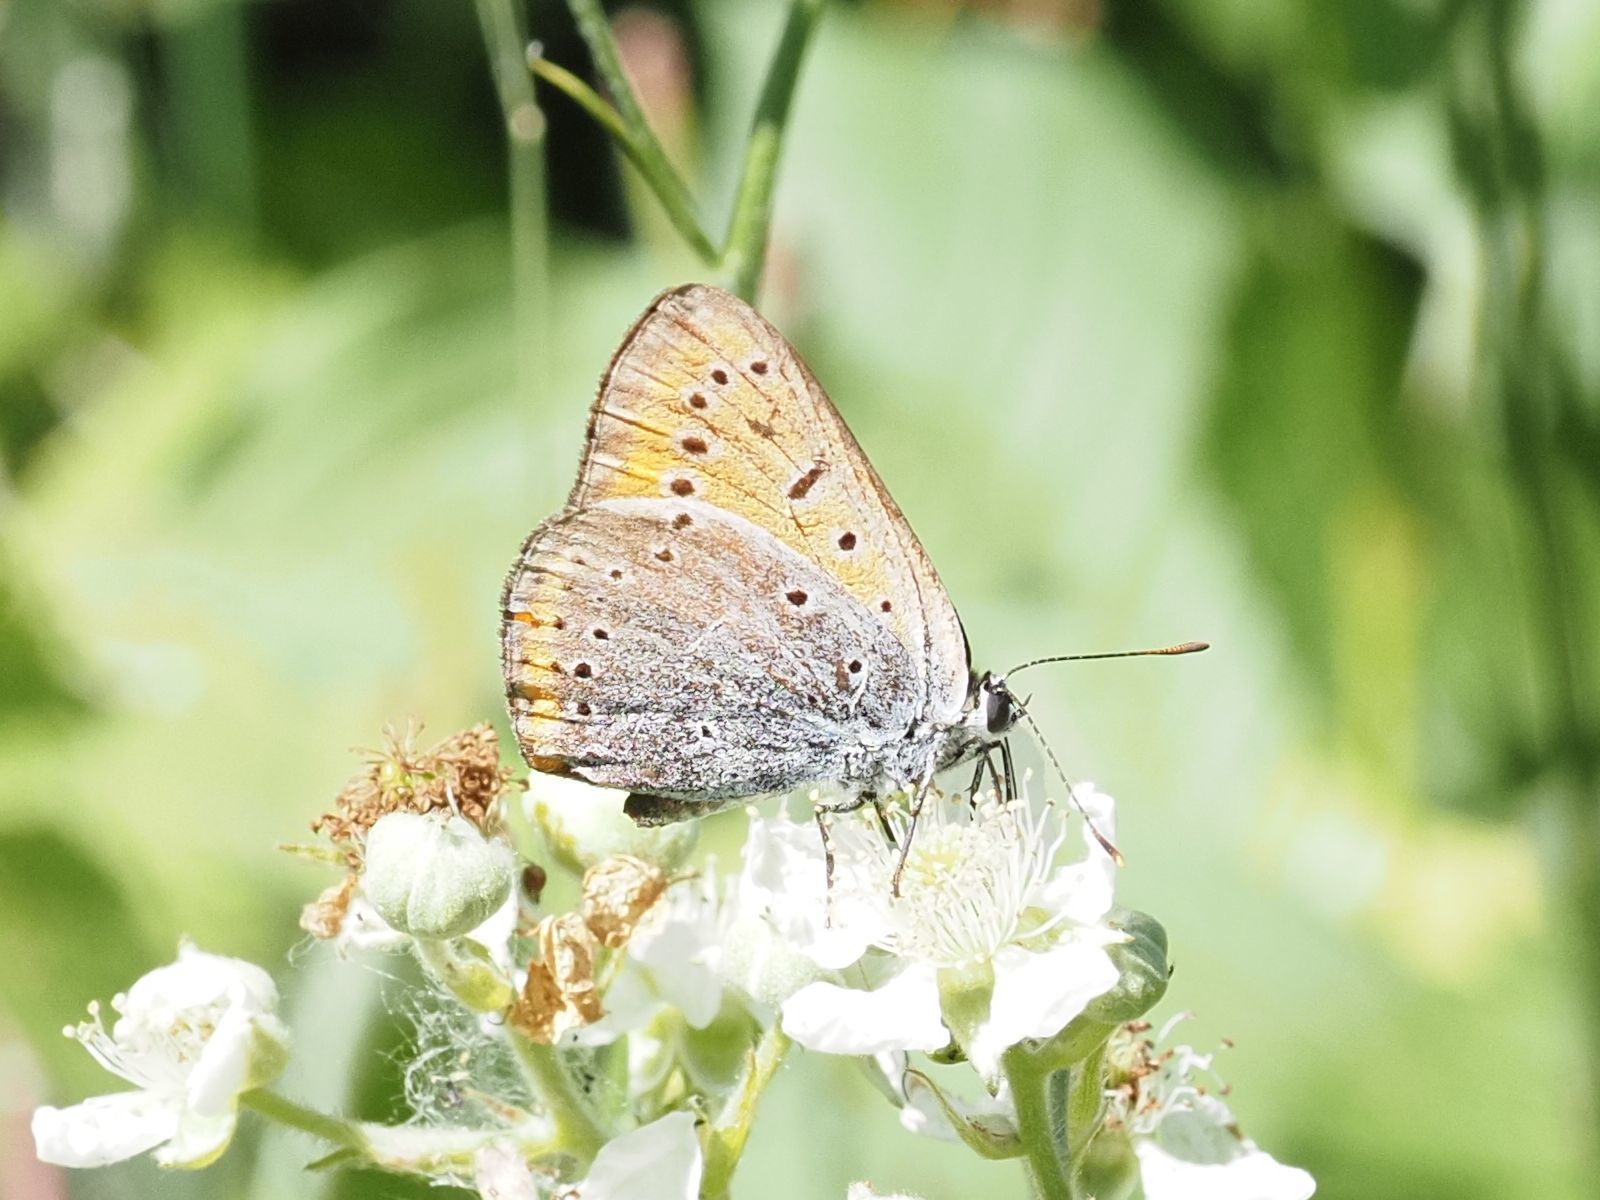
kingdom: Animalia
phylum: Arthropoda
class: Insecta
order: Lepidoptera
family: Lycaenidae
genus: Lycaena
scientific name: Lycaena dispar
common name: Large copper
